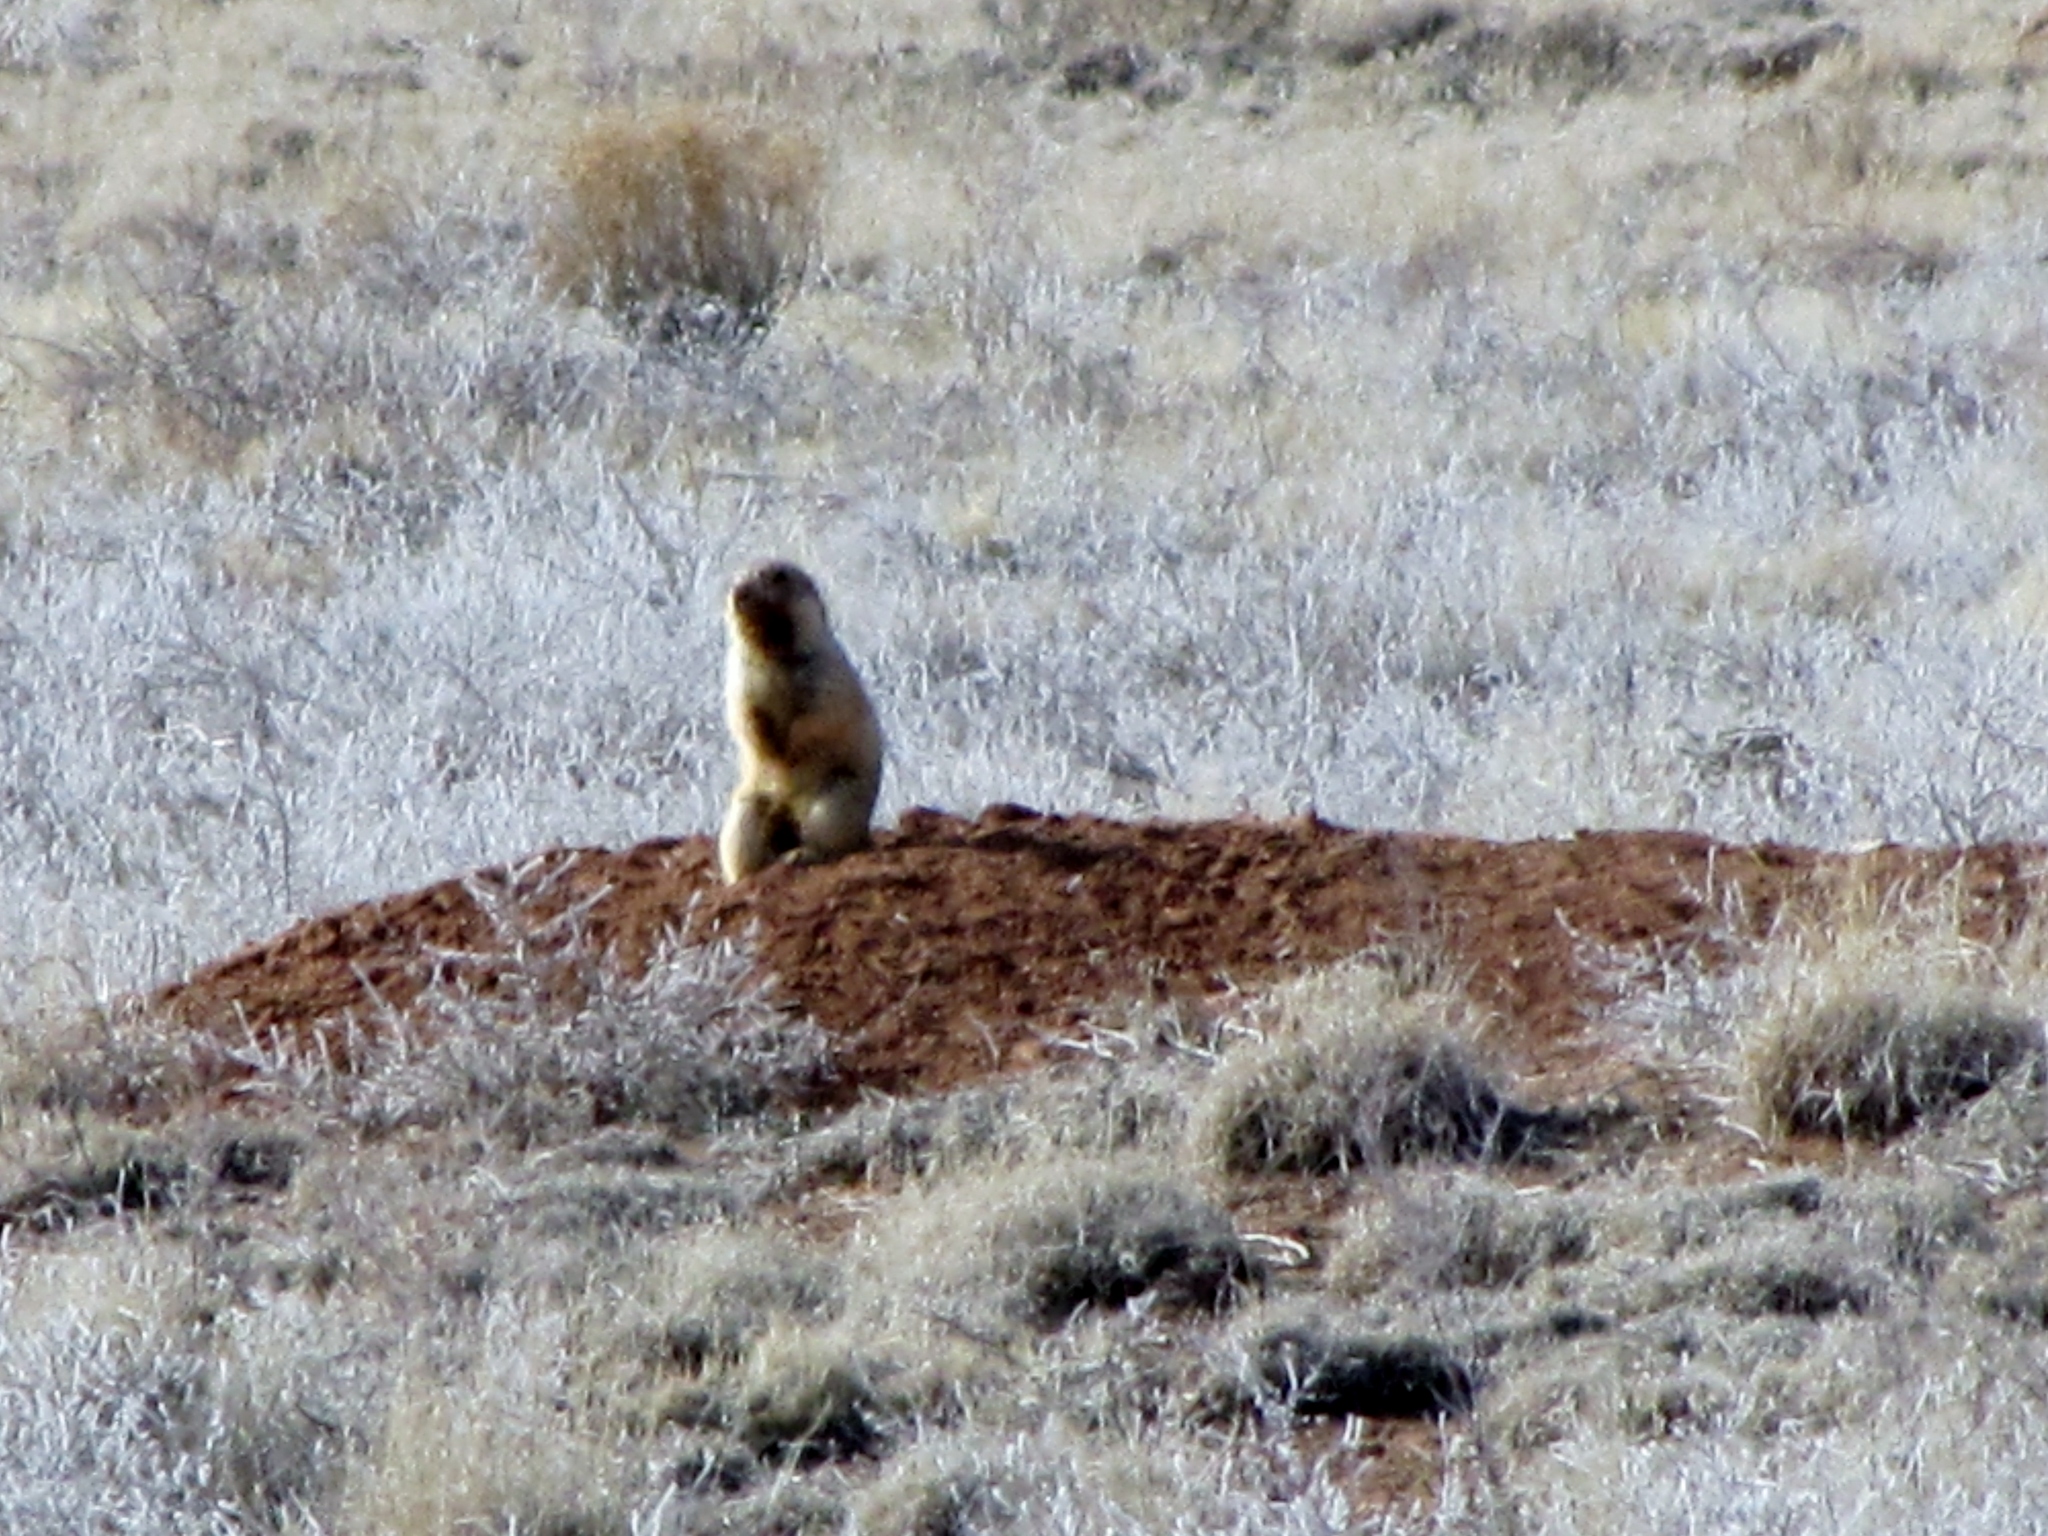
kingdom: Animalia
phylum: Chordata
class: Mammalia
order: Rodentia
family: Sciuridae
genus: Cynomys
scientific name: Cynomys gunnisoni
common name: Gunnison's prairie dog
